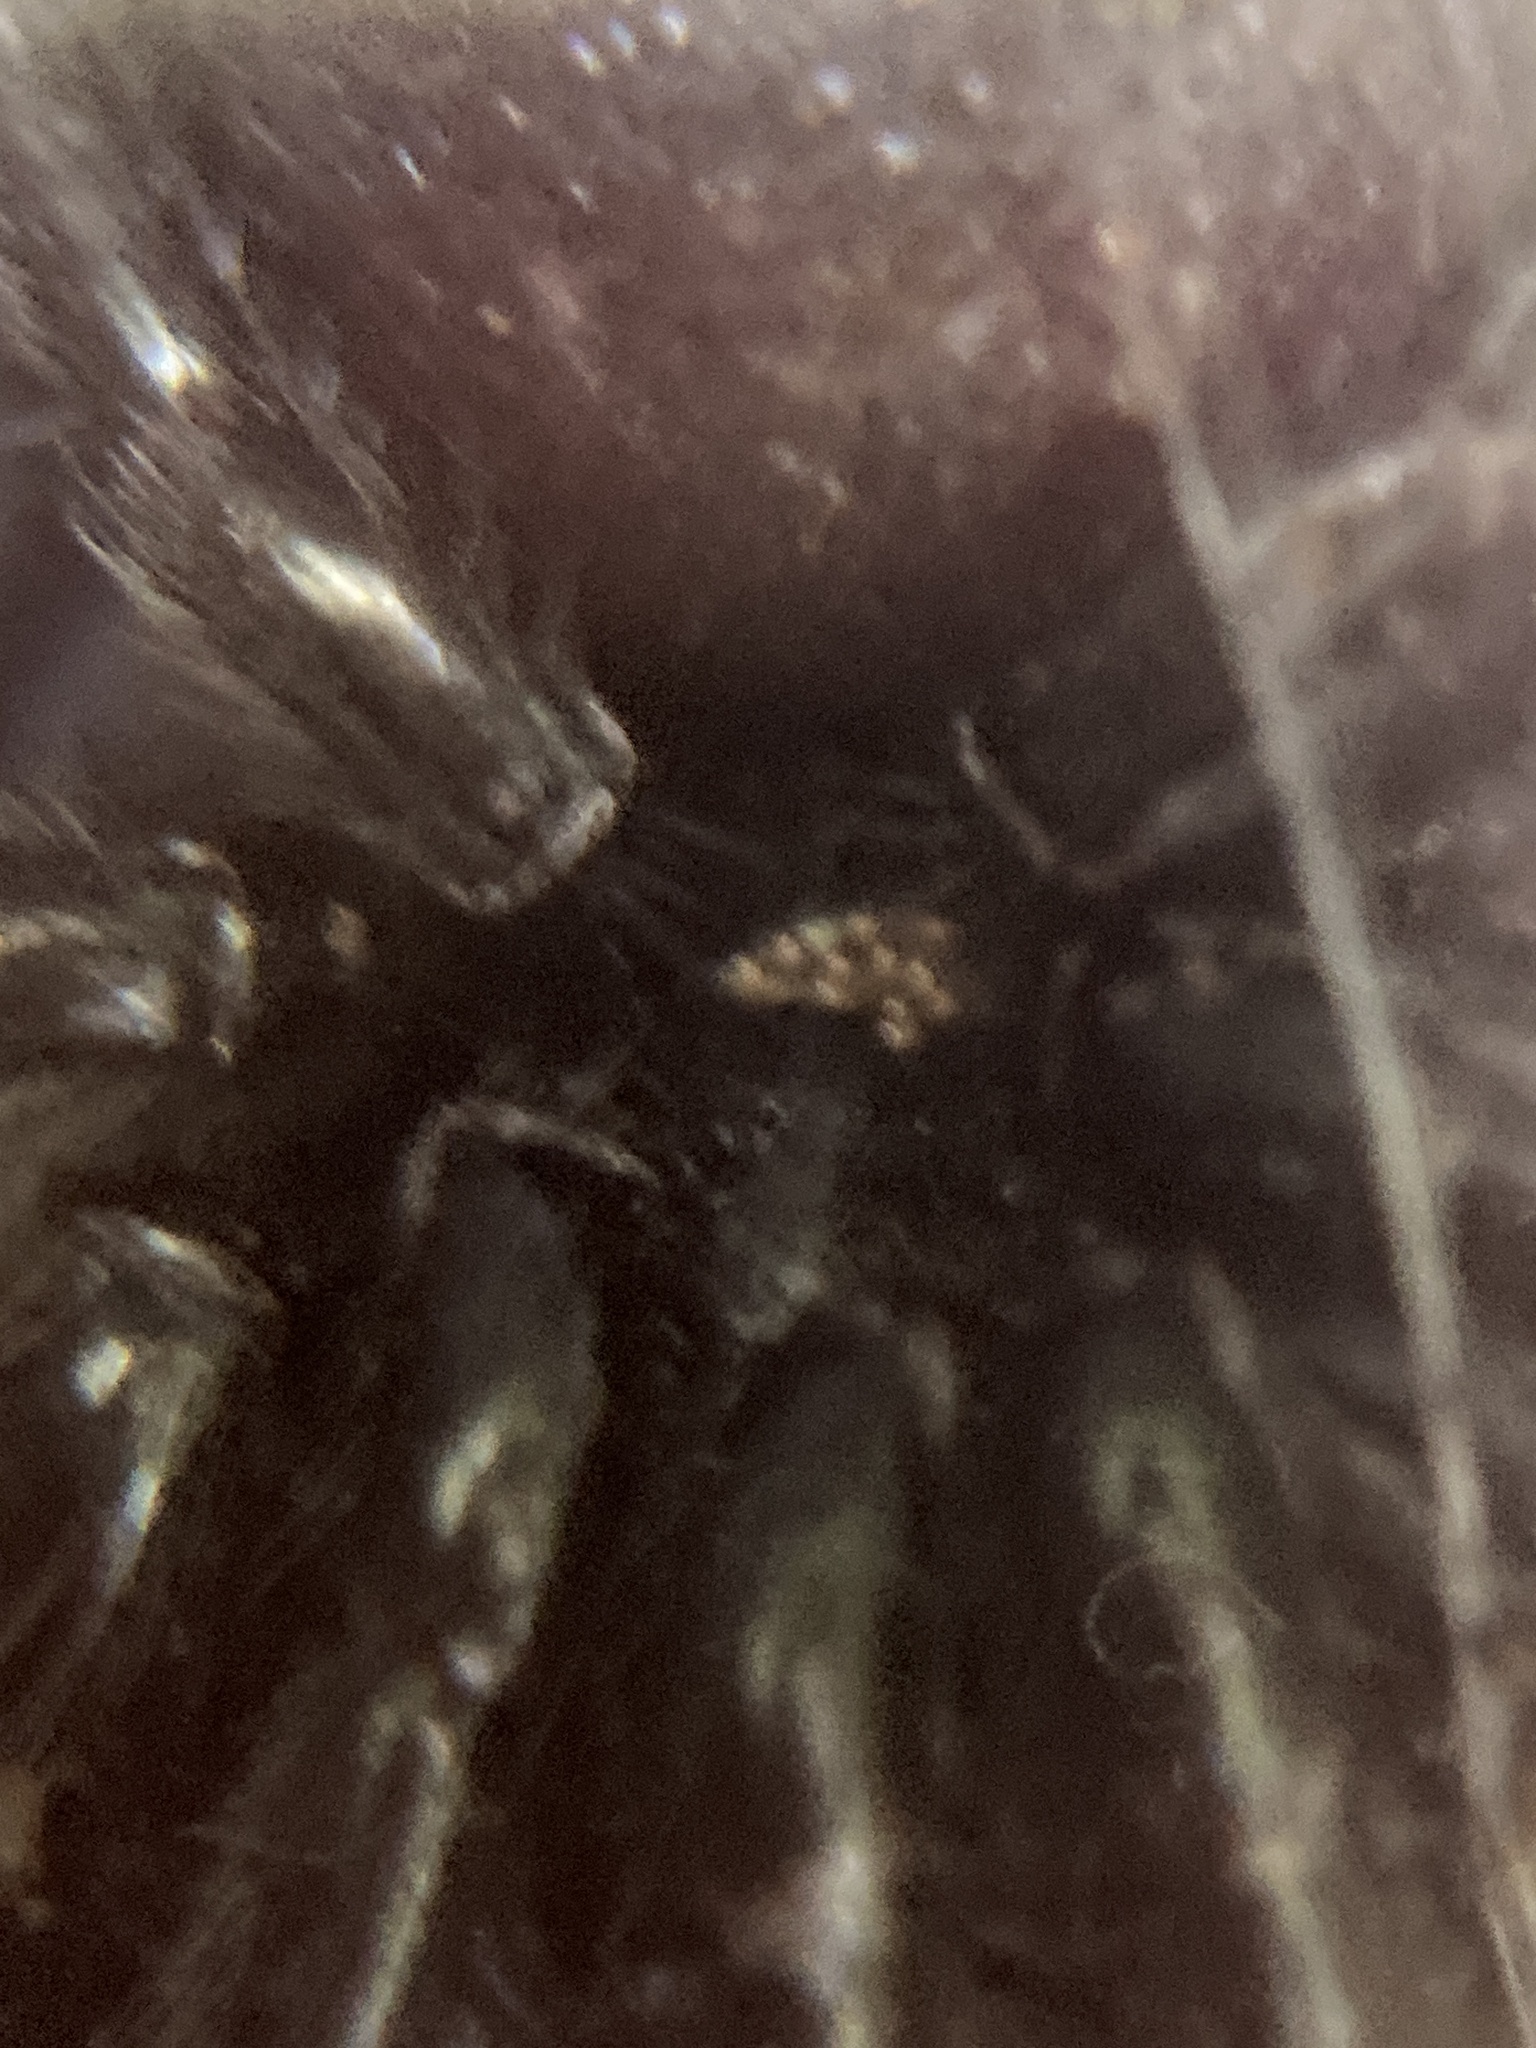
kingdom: Animalia
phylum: Arthropoda
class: Arachnida
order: Araneae
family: Atracidae
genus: Atrax
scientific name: Atrax robustus
